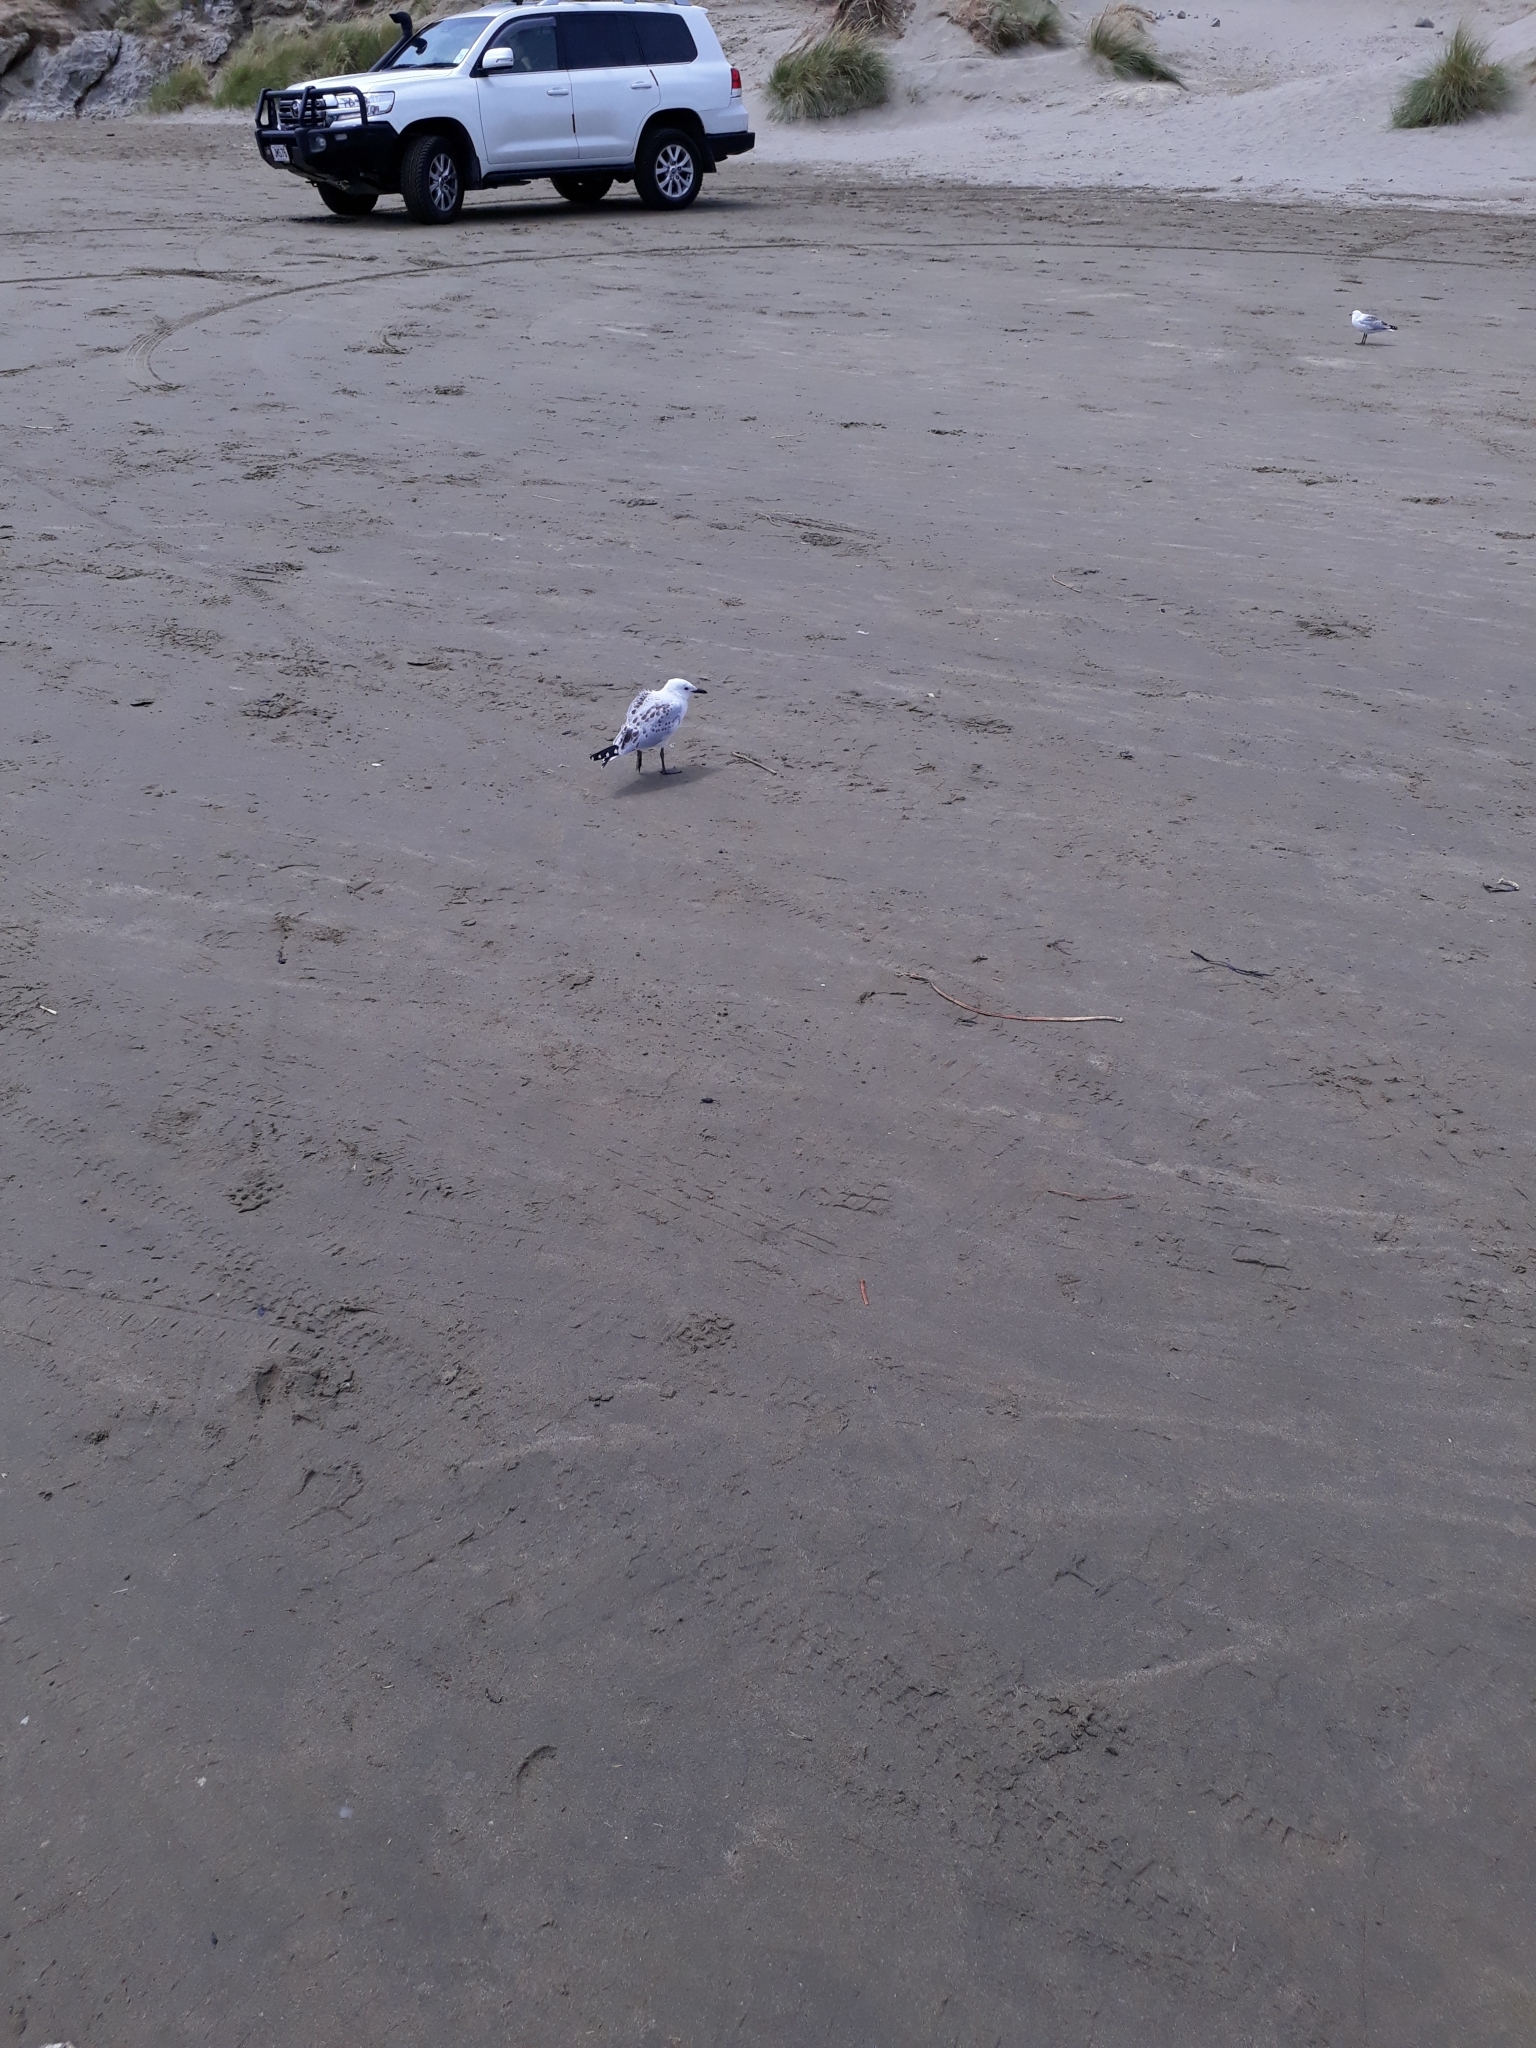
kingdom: Animalia
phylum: Chordata
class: Aves
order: Charadriiformes
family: Laridae
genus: Chroicocephalus
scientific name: Chroicocephalus novaehollandiae
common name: Silver gull
